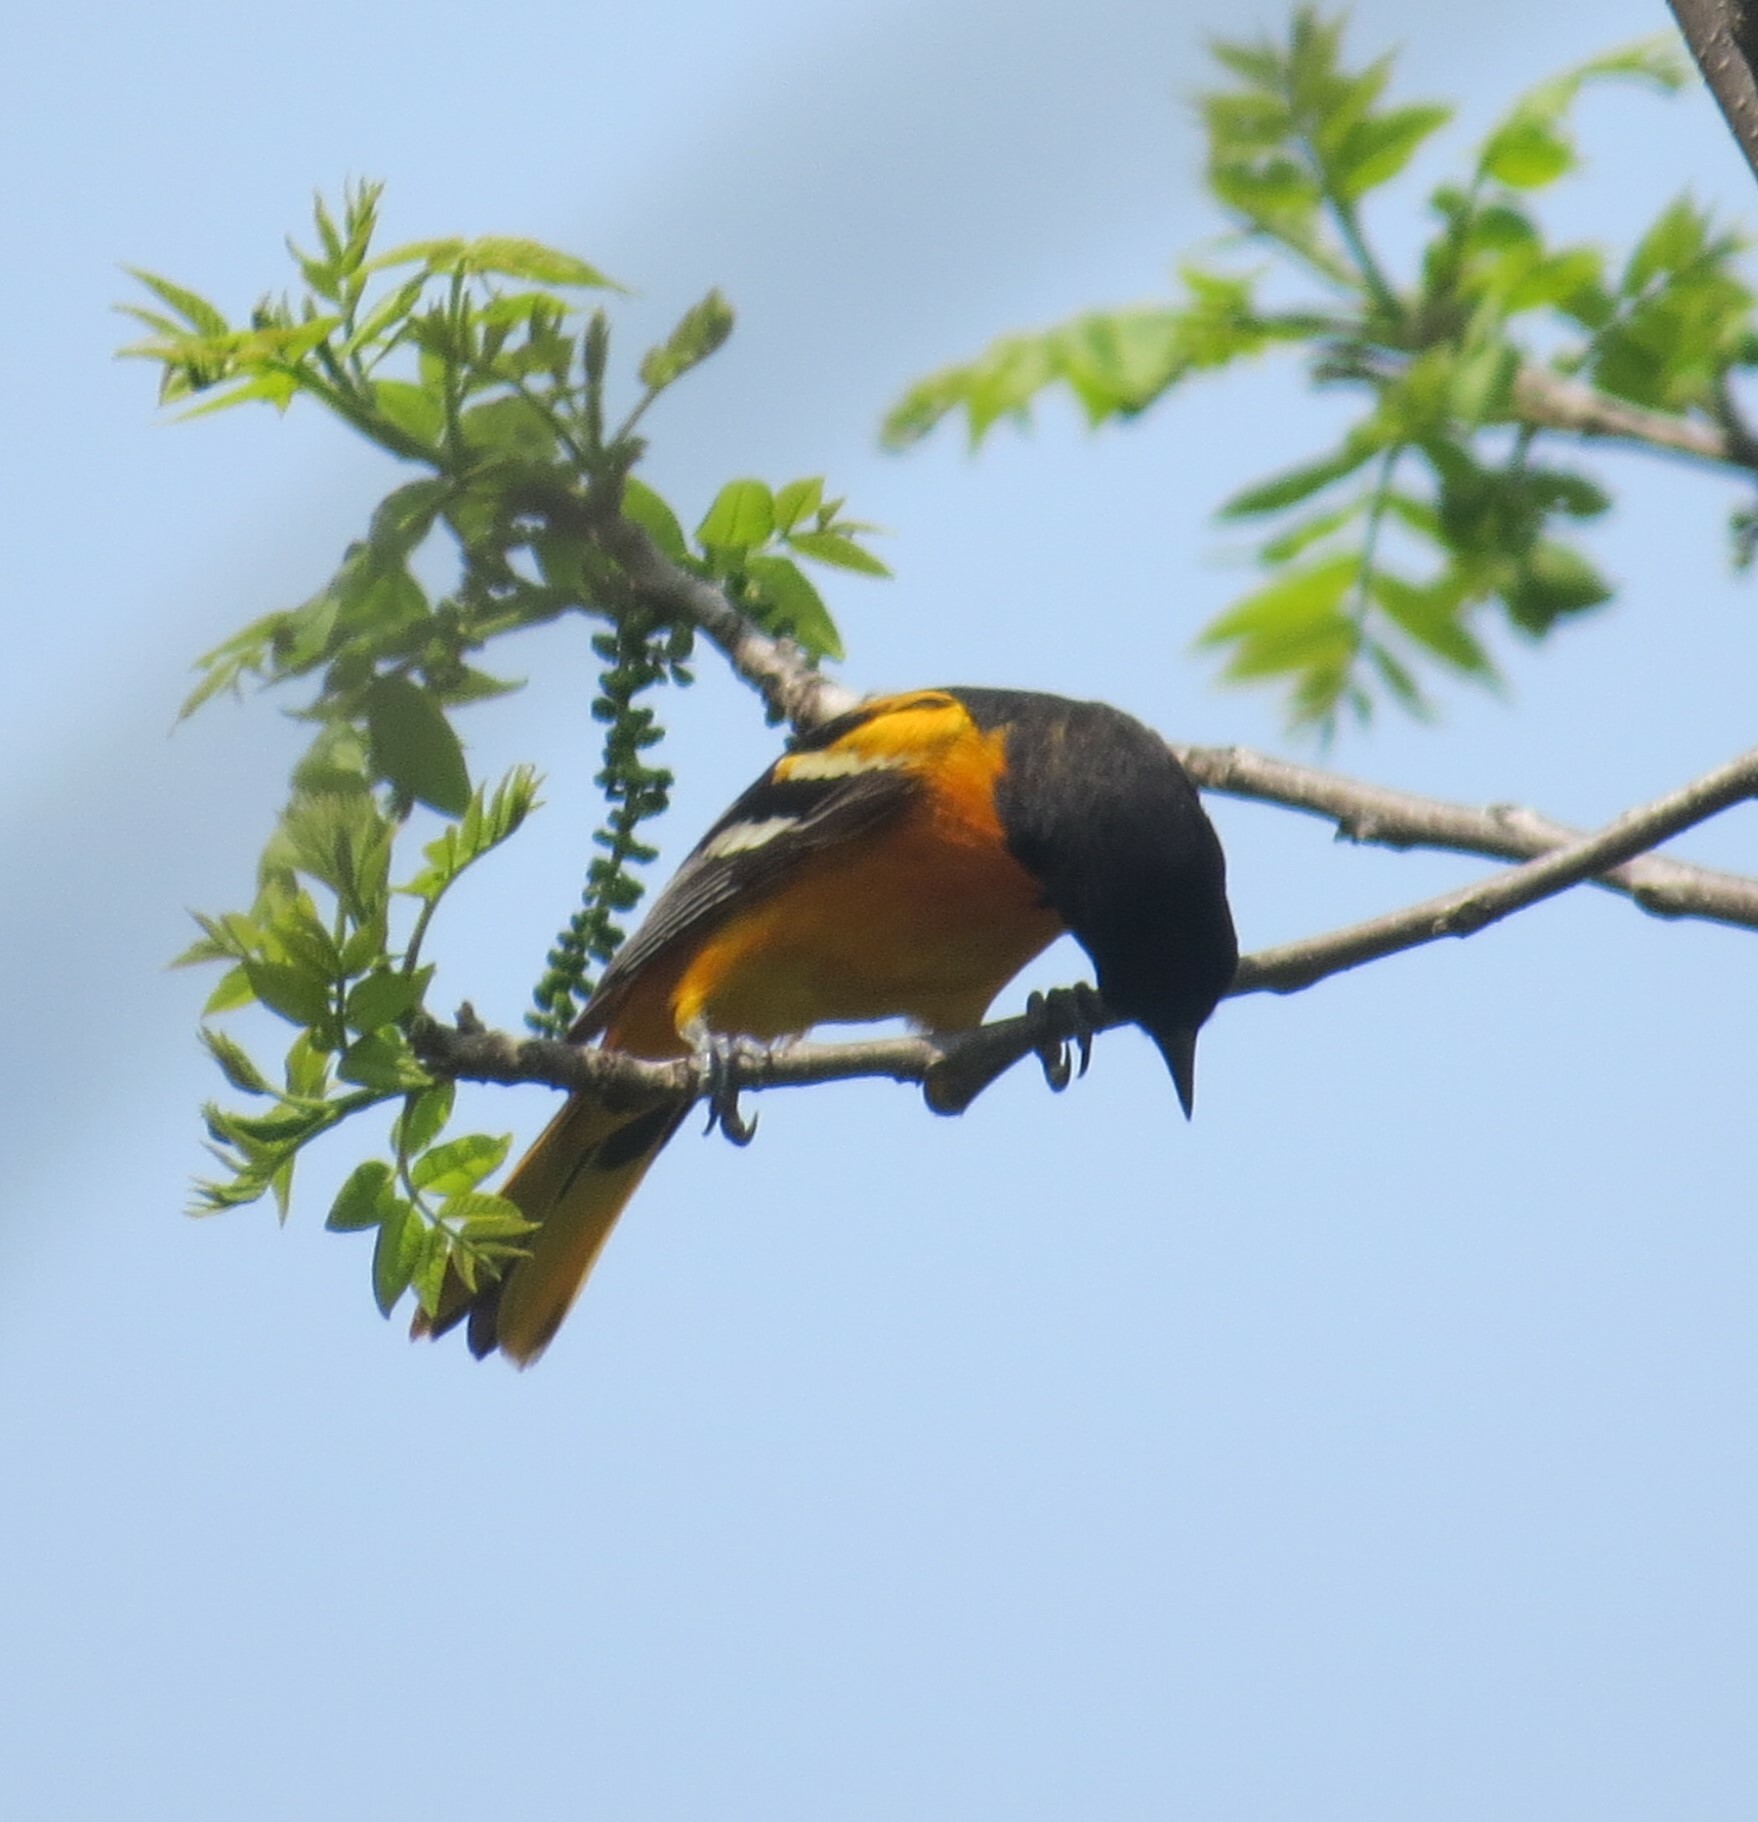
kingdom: Animalia
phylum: Chordata
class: Aves
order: Passeriformes
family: Icteridae
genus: Icterus
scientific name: Icterus galbula
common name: Baltimore oriole
